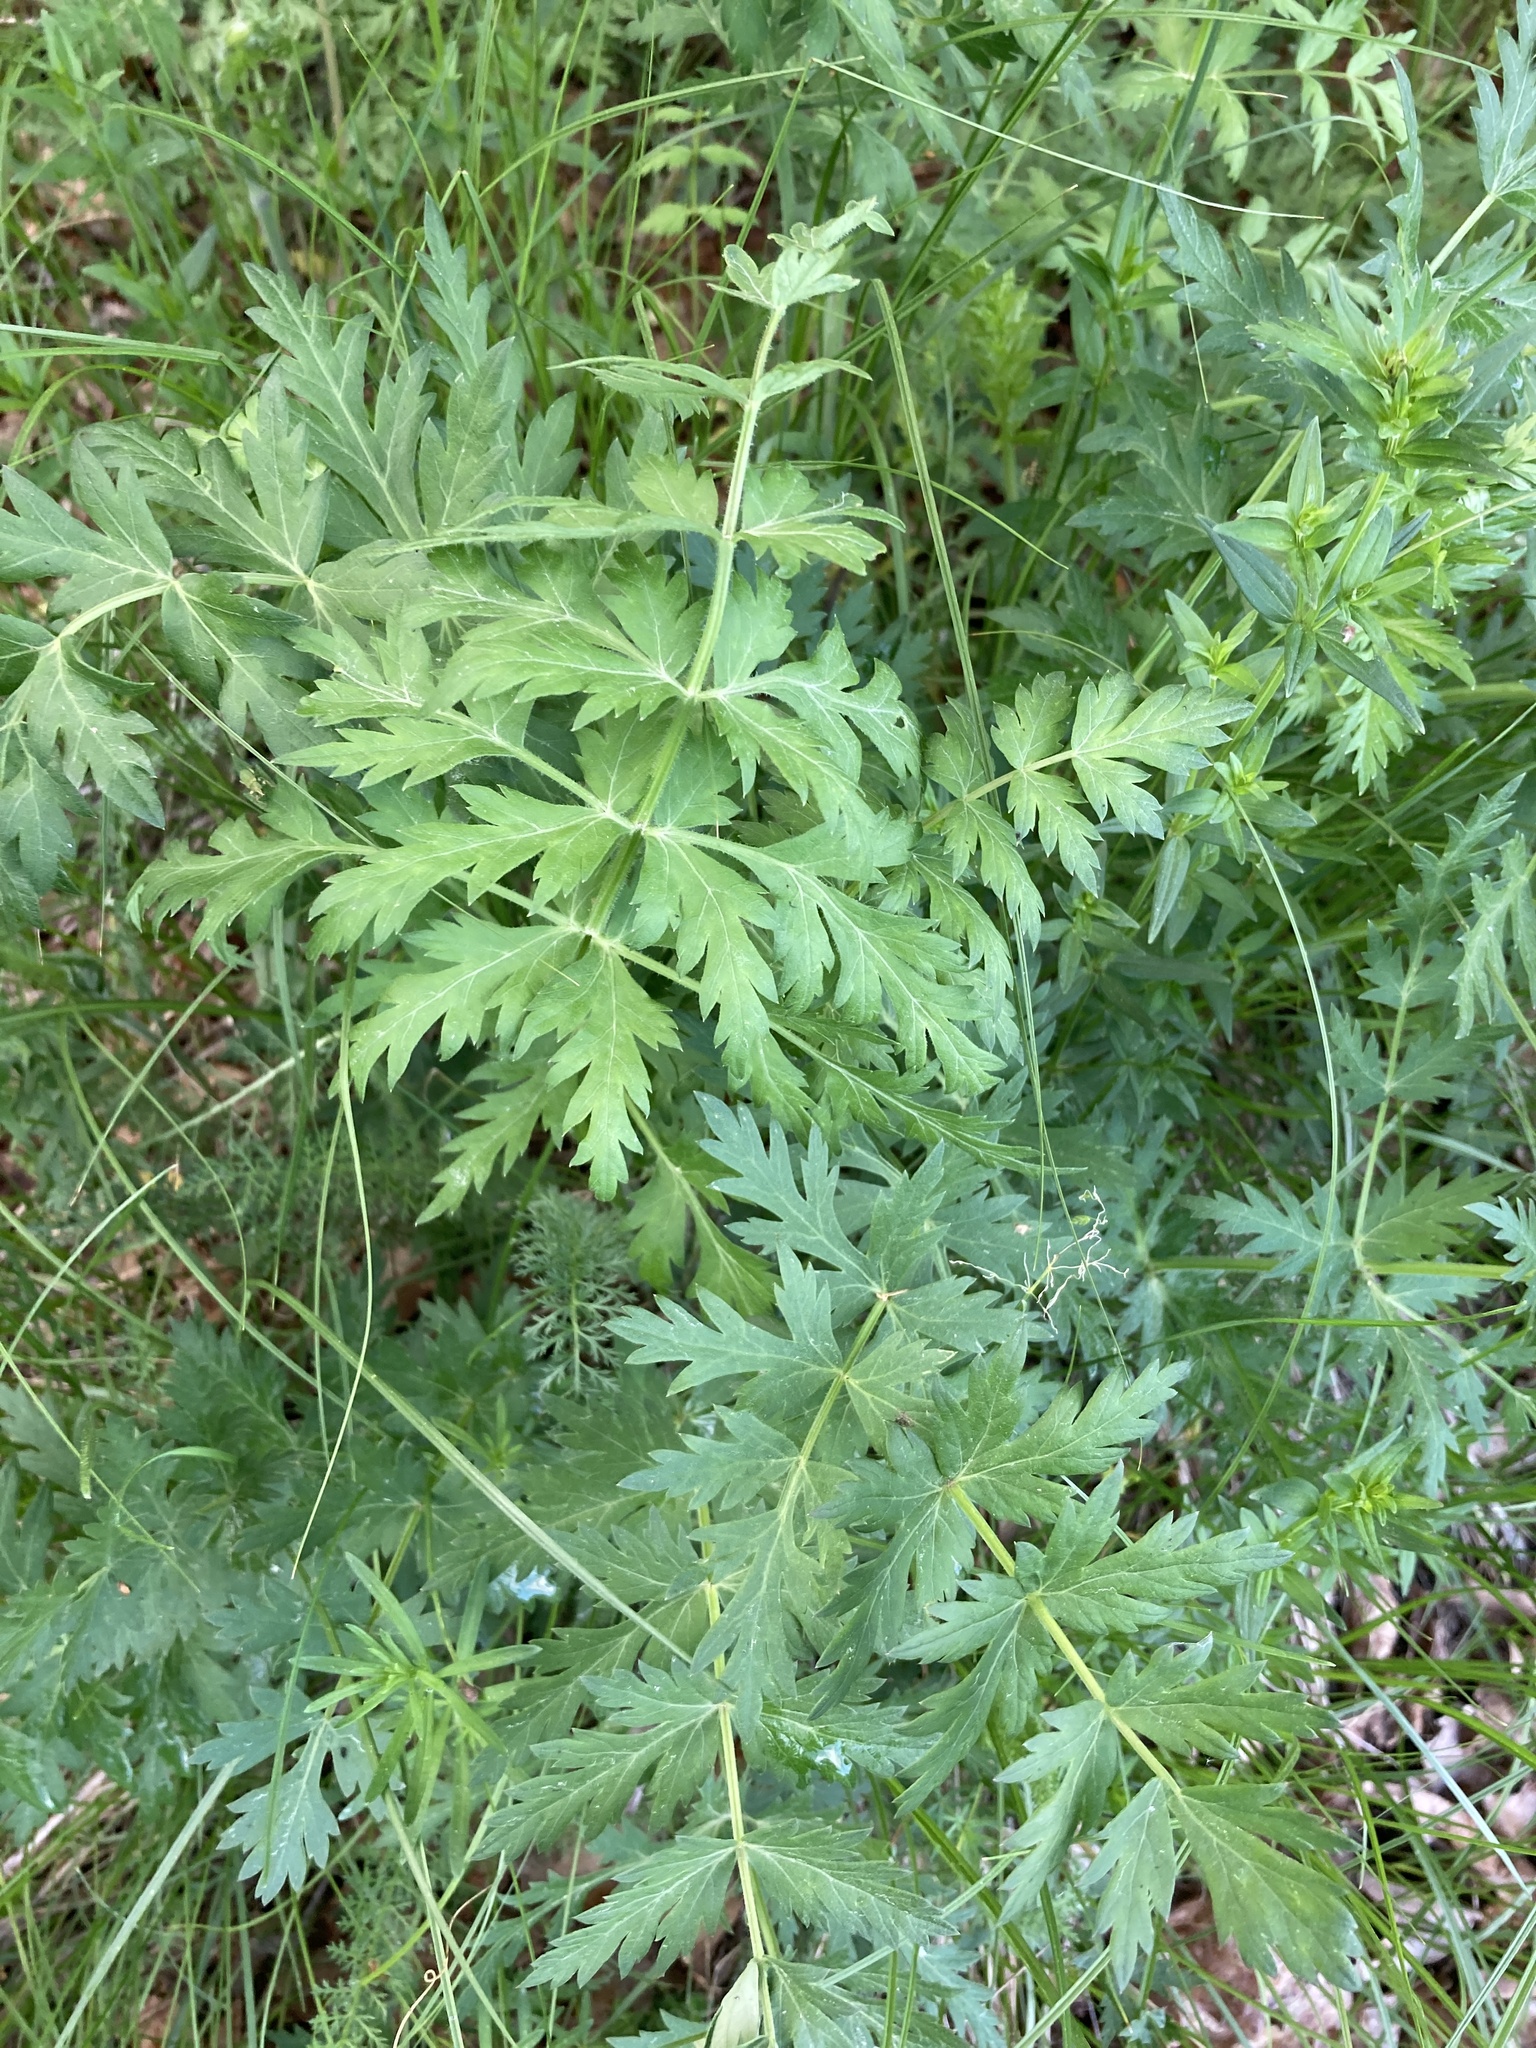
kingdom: Plantae
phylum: Tracheophyta
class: Magnoliopsida
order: Apiales
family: Apiaceae
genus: Seseli
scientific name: Seseli libanotis
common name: Mooncarrot
